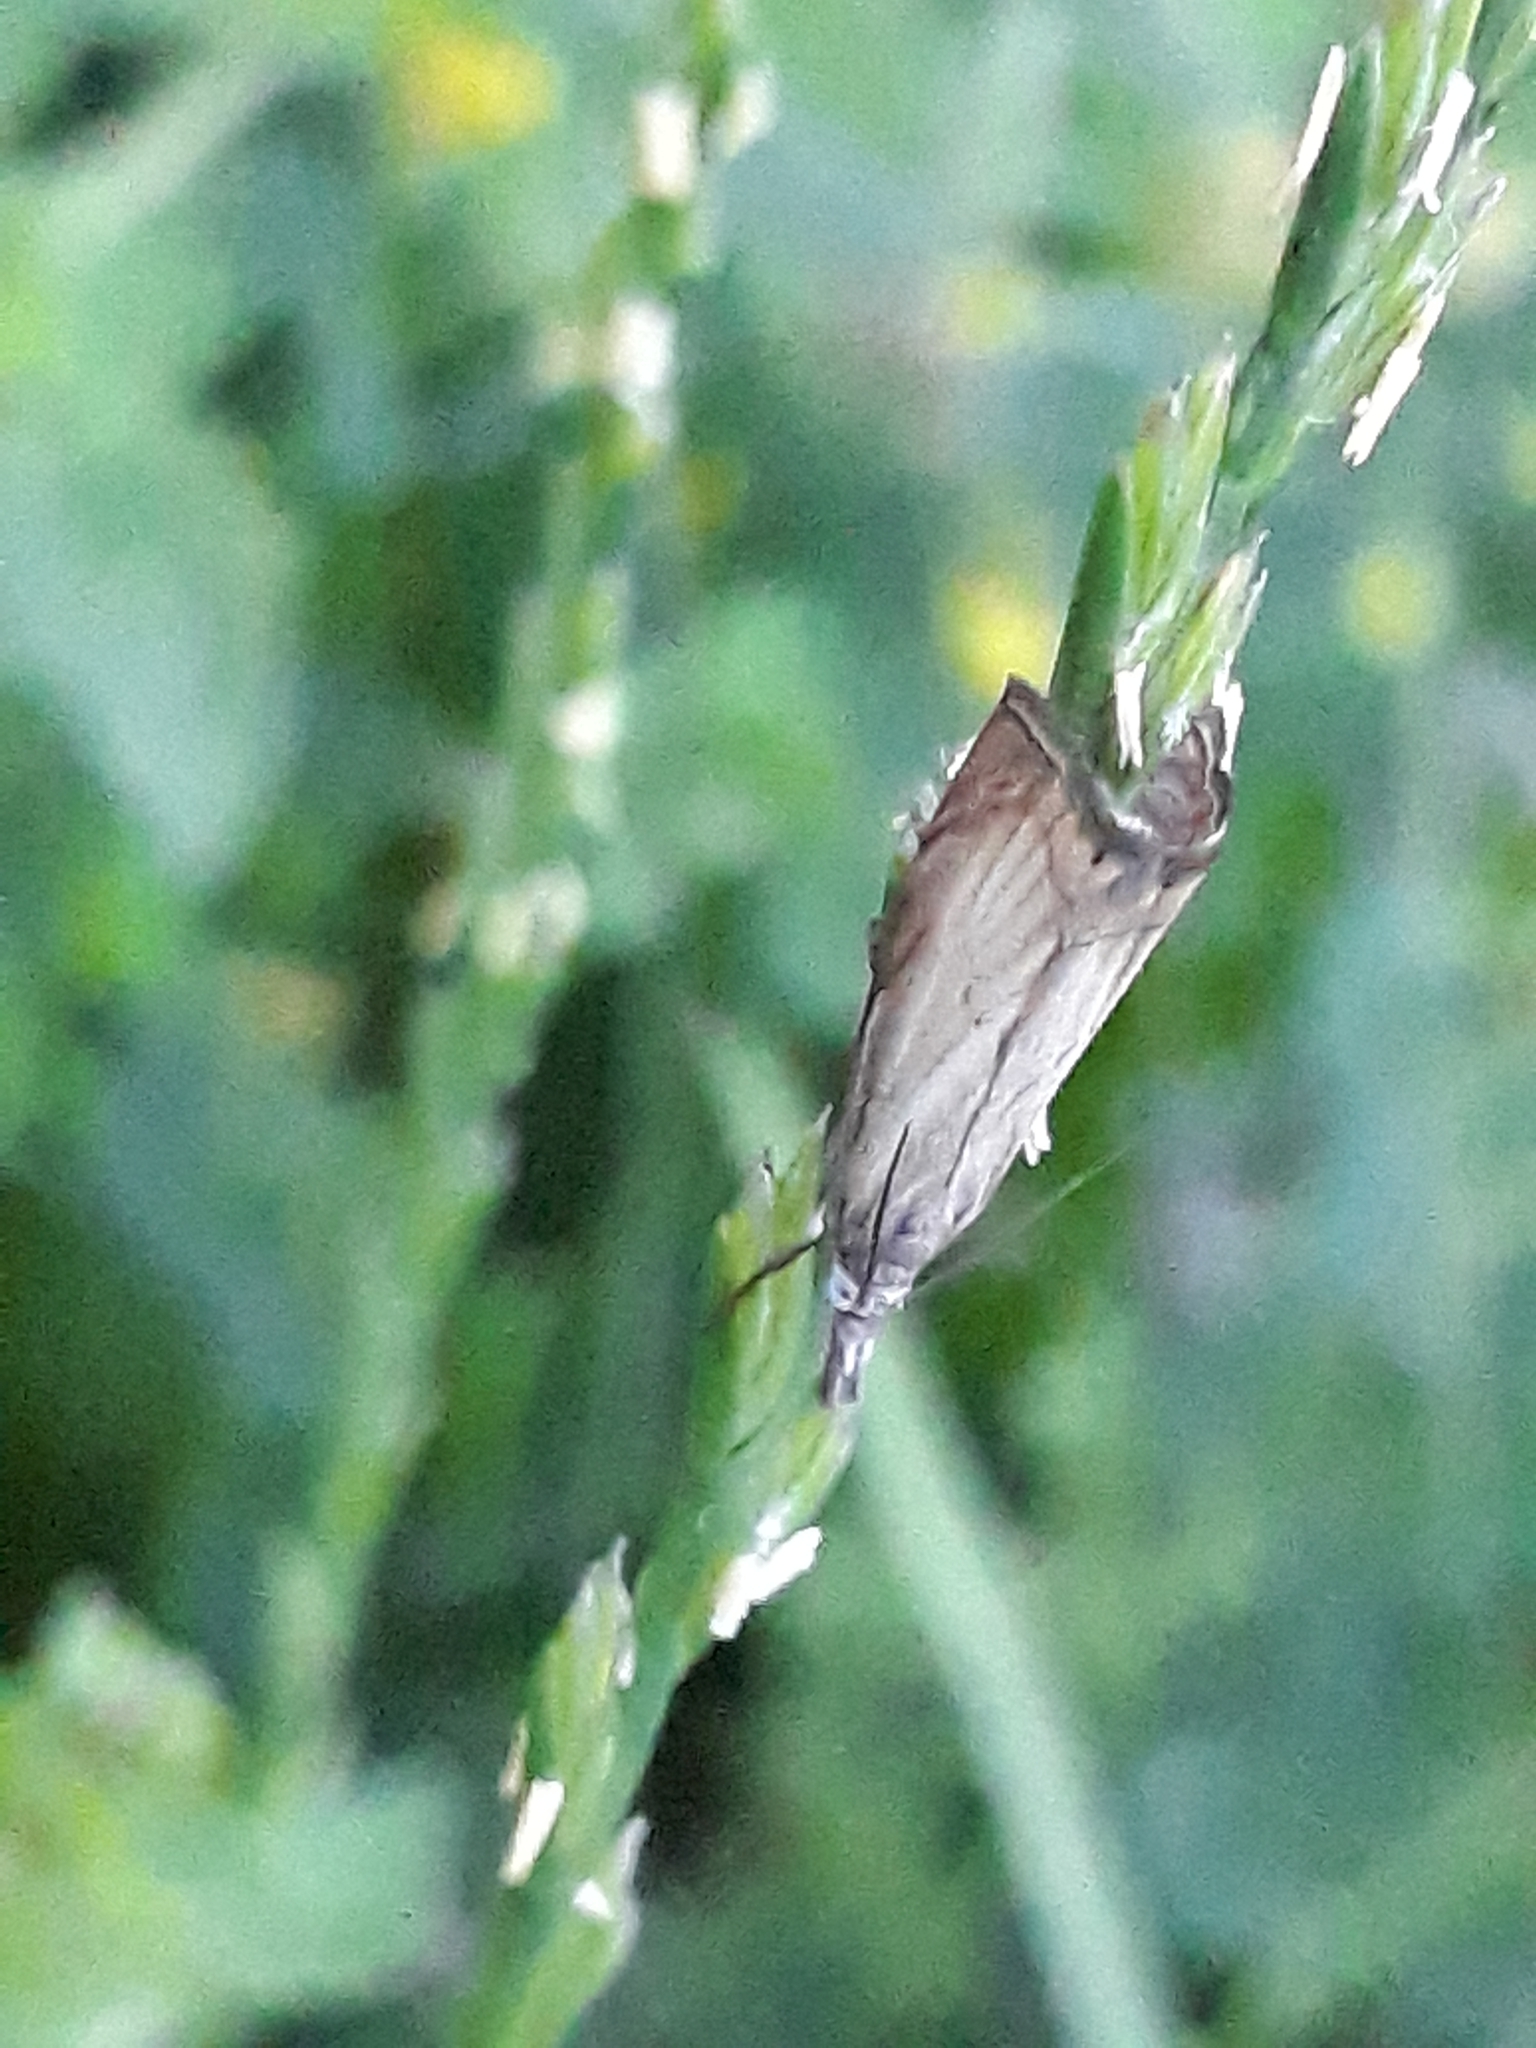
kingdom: Animalia
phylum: Arthropoda
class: Insecta
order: Lepidoptera
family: Crambidae
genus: Chrysoteuchia
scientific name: Chrysoteuchia culmella
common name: Garden grass-veneer
